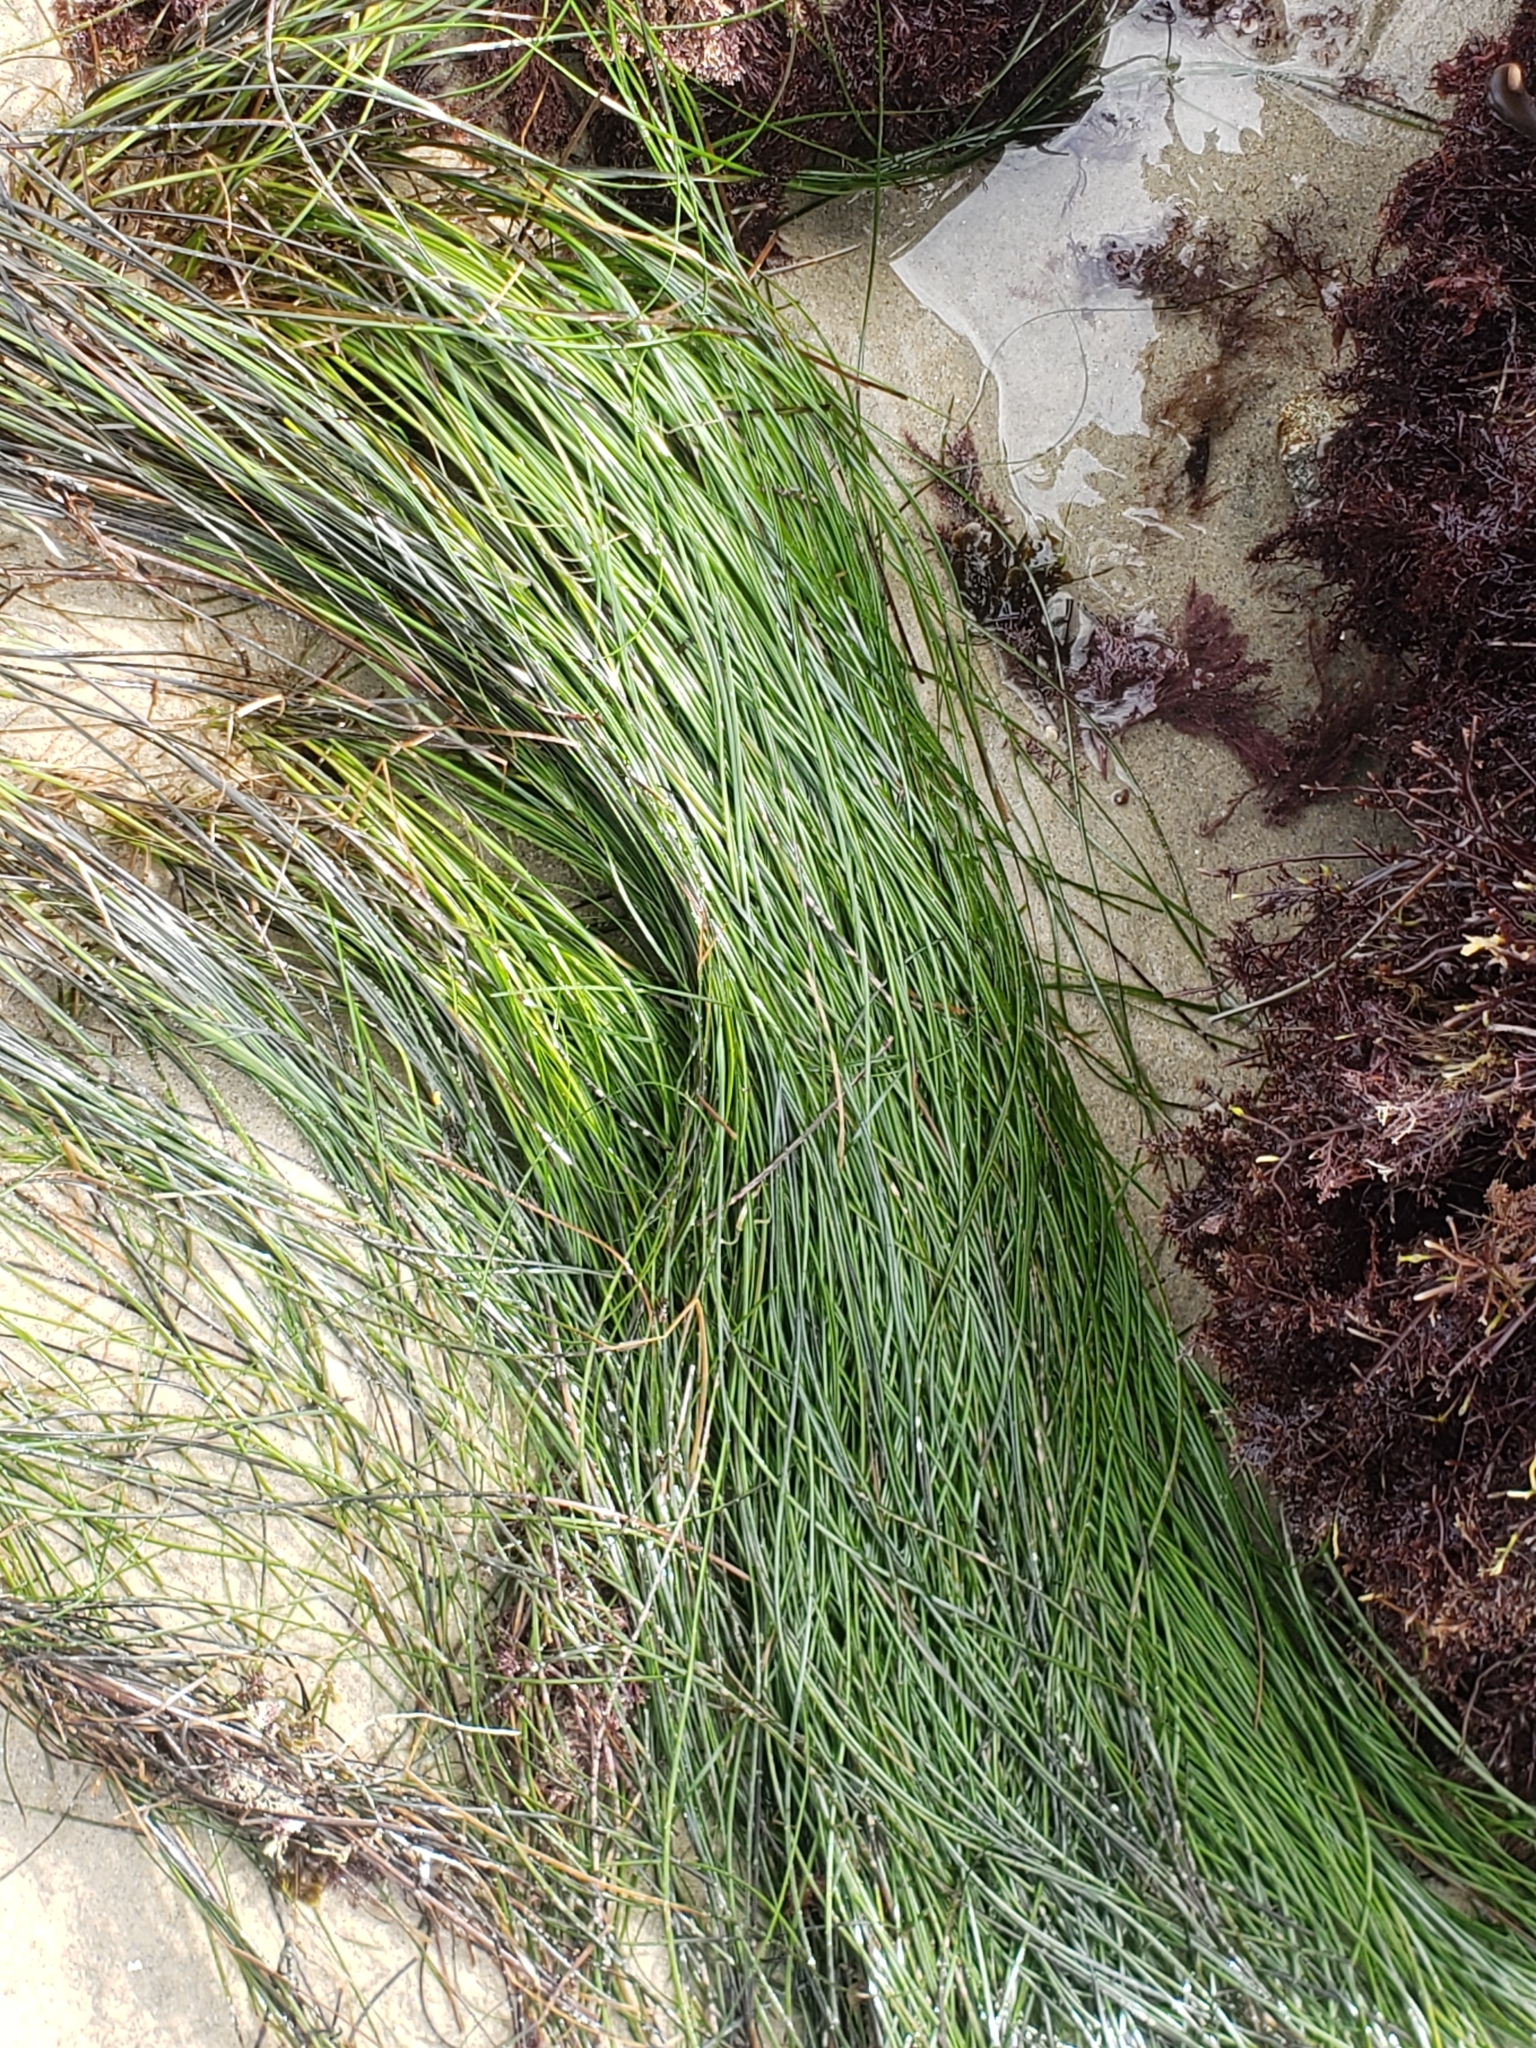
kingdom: Plantae
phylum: Tracheophyta
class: Liliopsida
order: Alismatales
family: Zosteraceae
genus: Phyllospadix
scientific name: Phyllospadix torreyi
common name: Surfgrass
